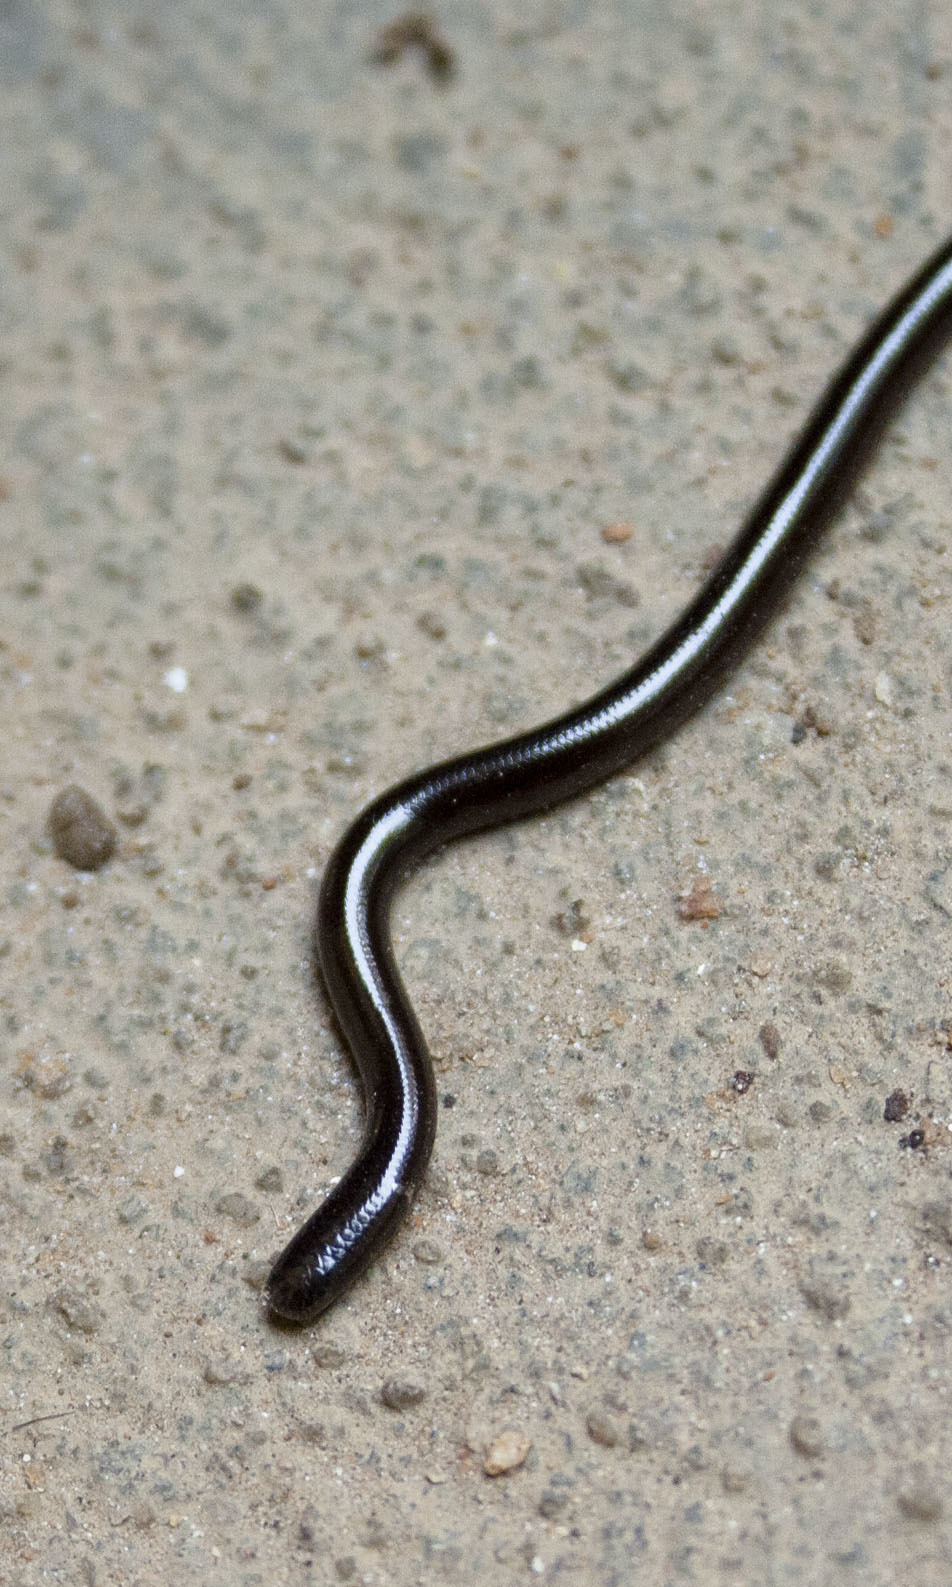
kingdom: Animalia
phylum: Chordata
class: Squamata
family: Typhlopidae
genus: Indotyphlops
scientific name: Indotyphlops braminus
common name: Brahminy blindsnake
